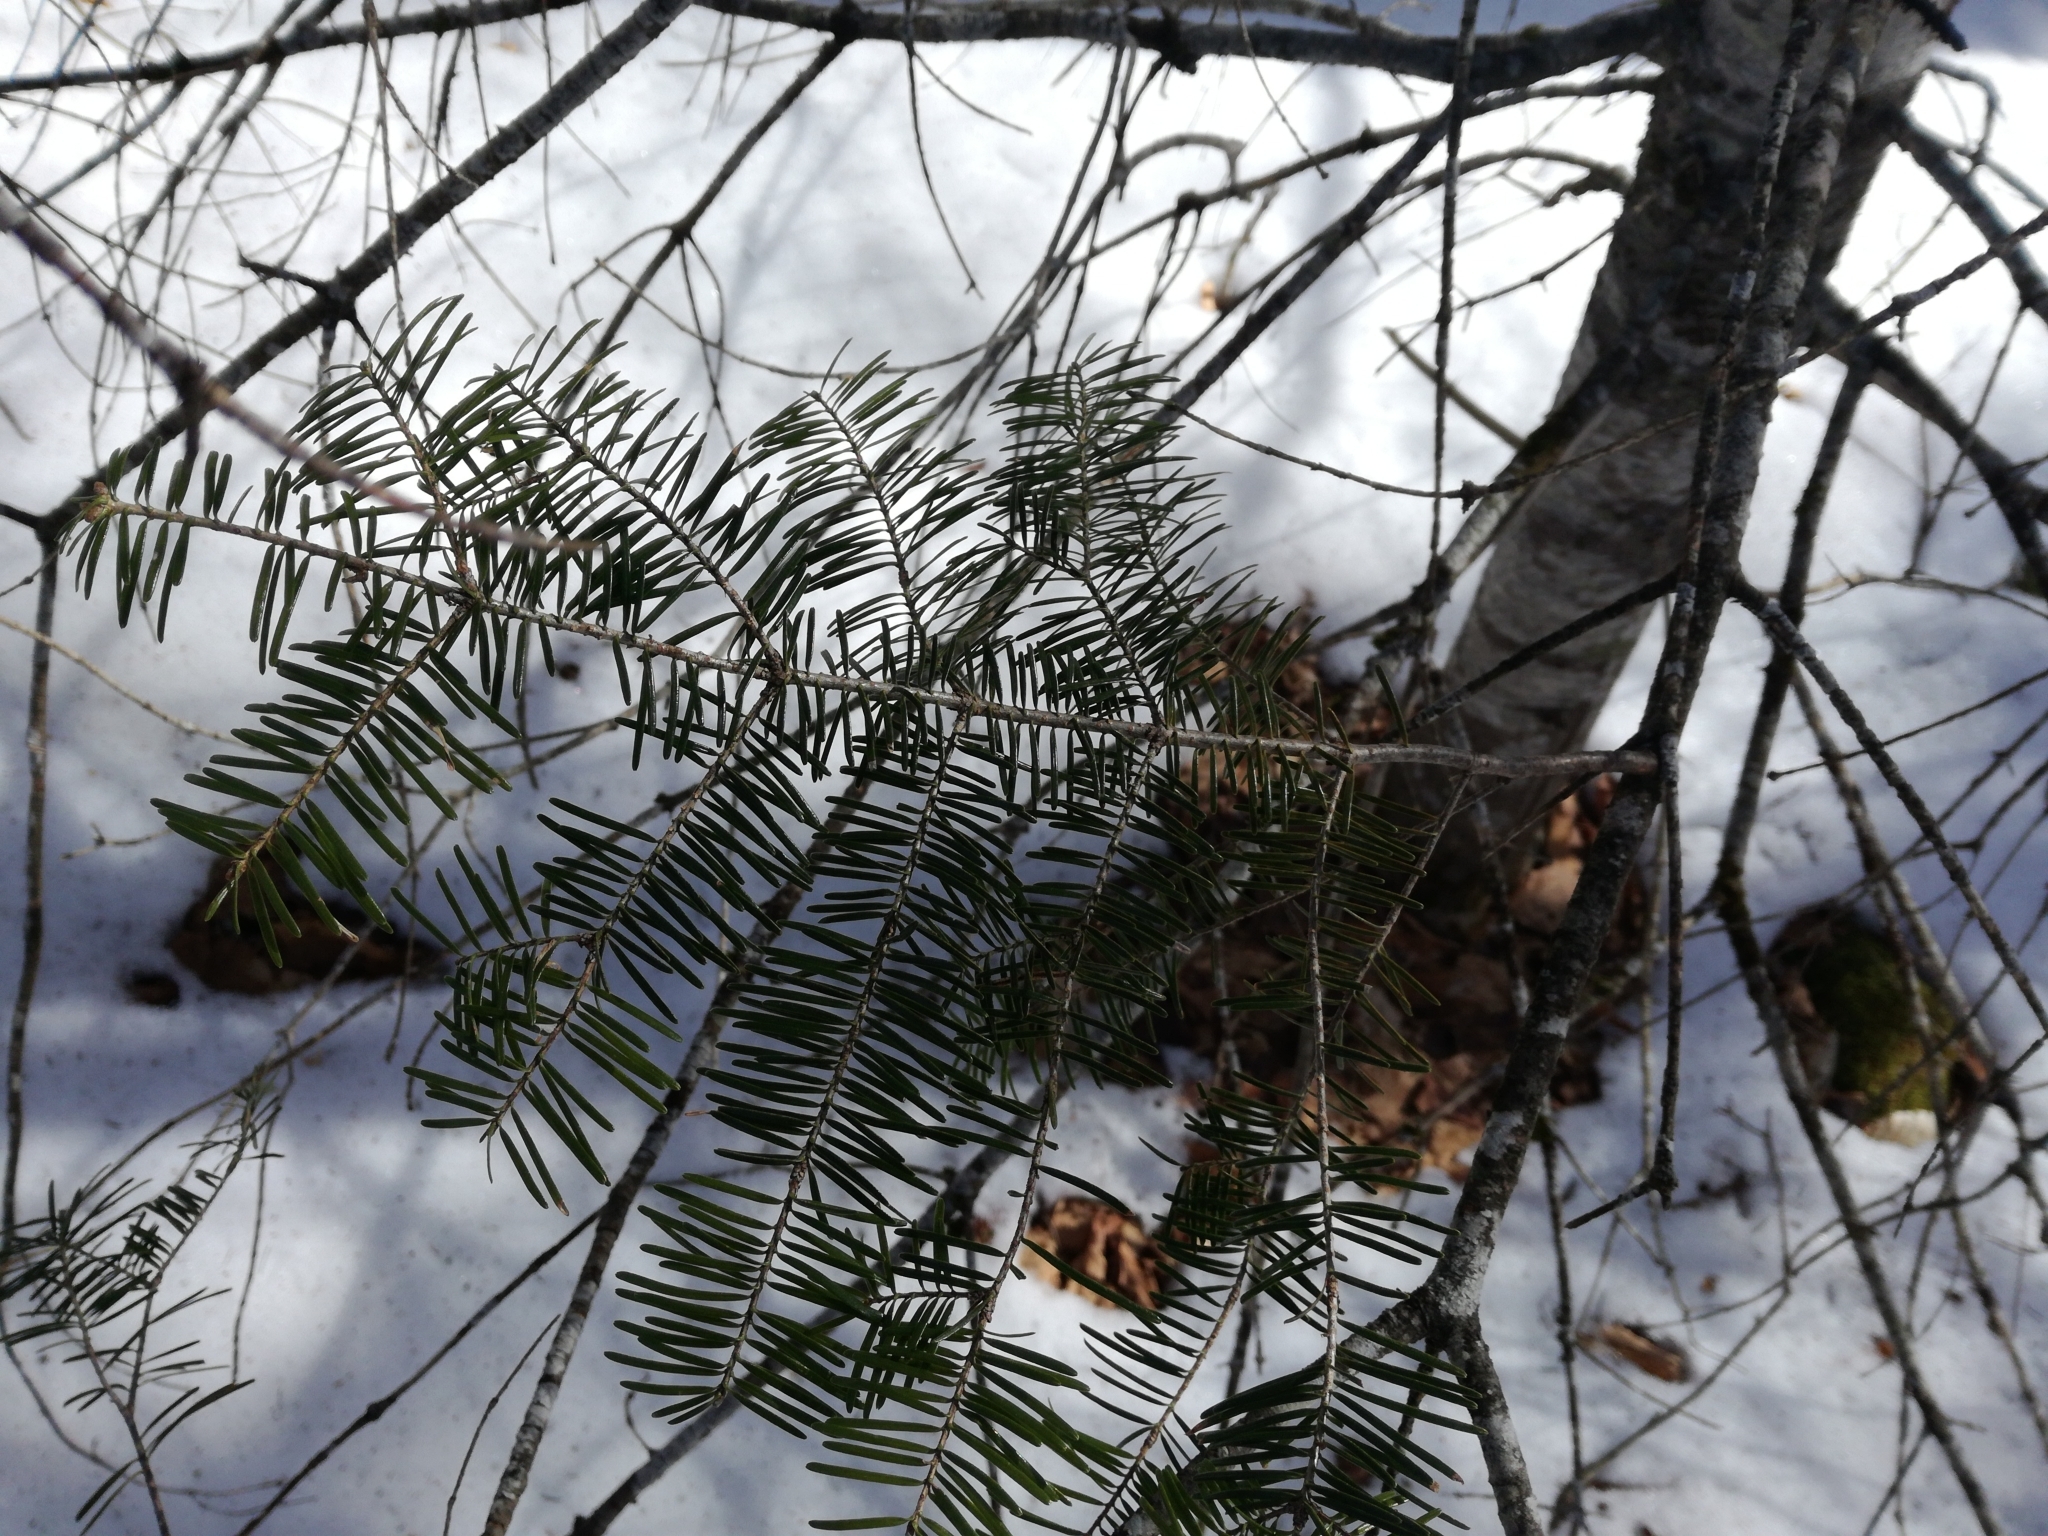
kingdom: Plantae
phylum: Tracheophyta
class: Pinopsida
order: Pinales
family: Pinaceae
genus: Abies
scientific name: Abies balsamea
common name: Balsam fir
